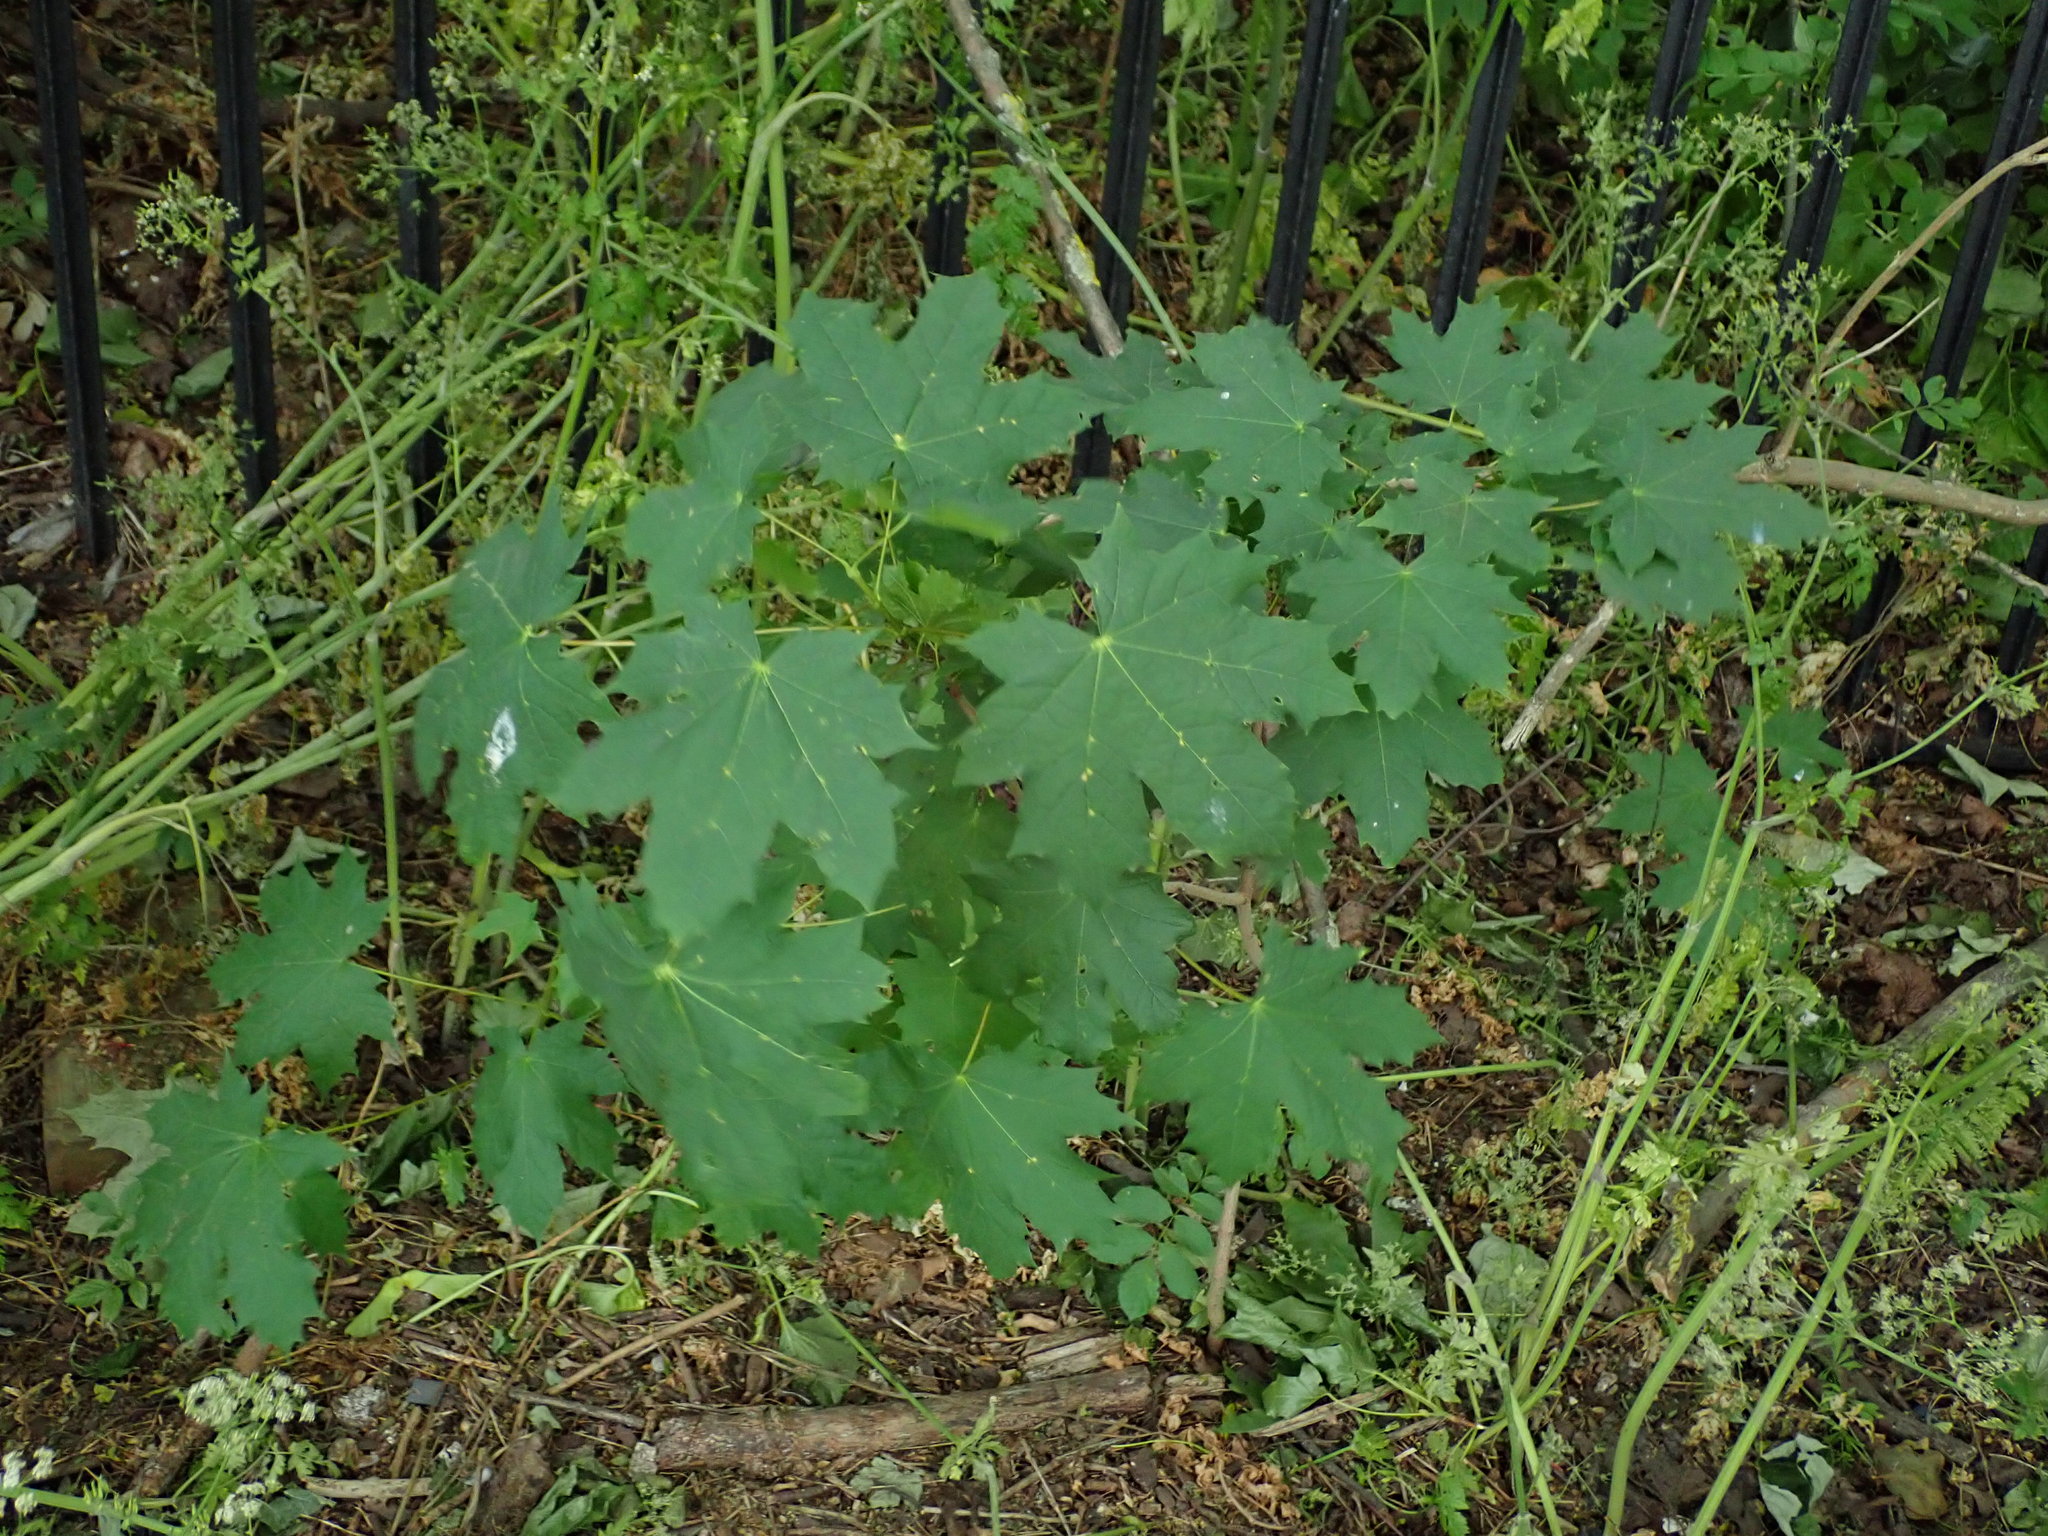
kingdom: Plantae
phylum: Tracheophyta
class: Magnoliopsida
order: Sapindales
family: Sapindaceae
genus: Acer
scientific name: Acer platanoides
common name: Norway maple
